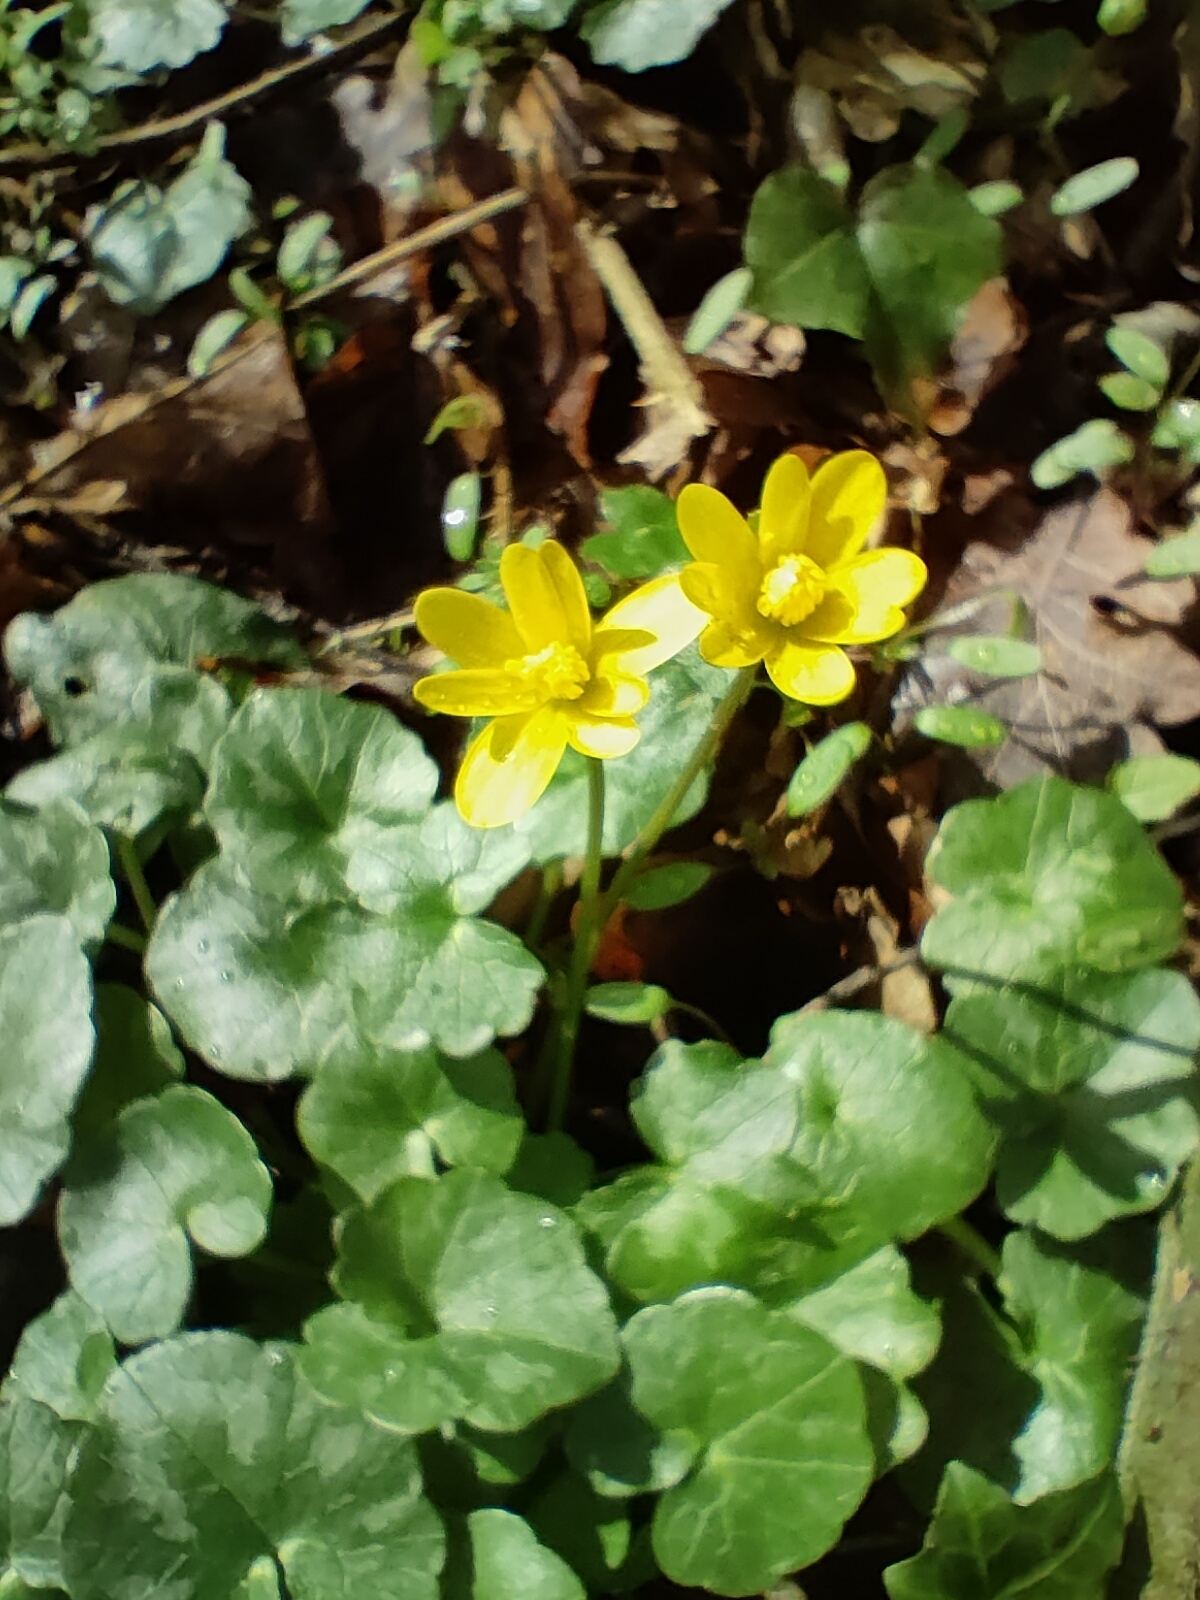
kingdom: Plantae
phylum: Tracheophyta
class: Magnoliopsida
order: Ranunculales
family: Ranunculaceae
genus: Ficaria
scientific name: Ficaria verna
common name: Lesser celandine
